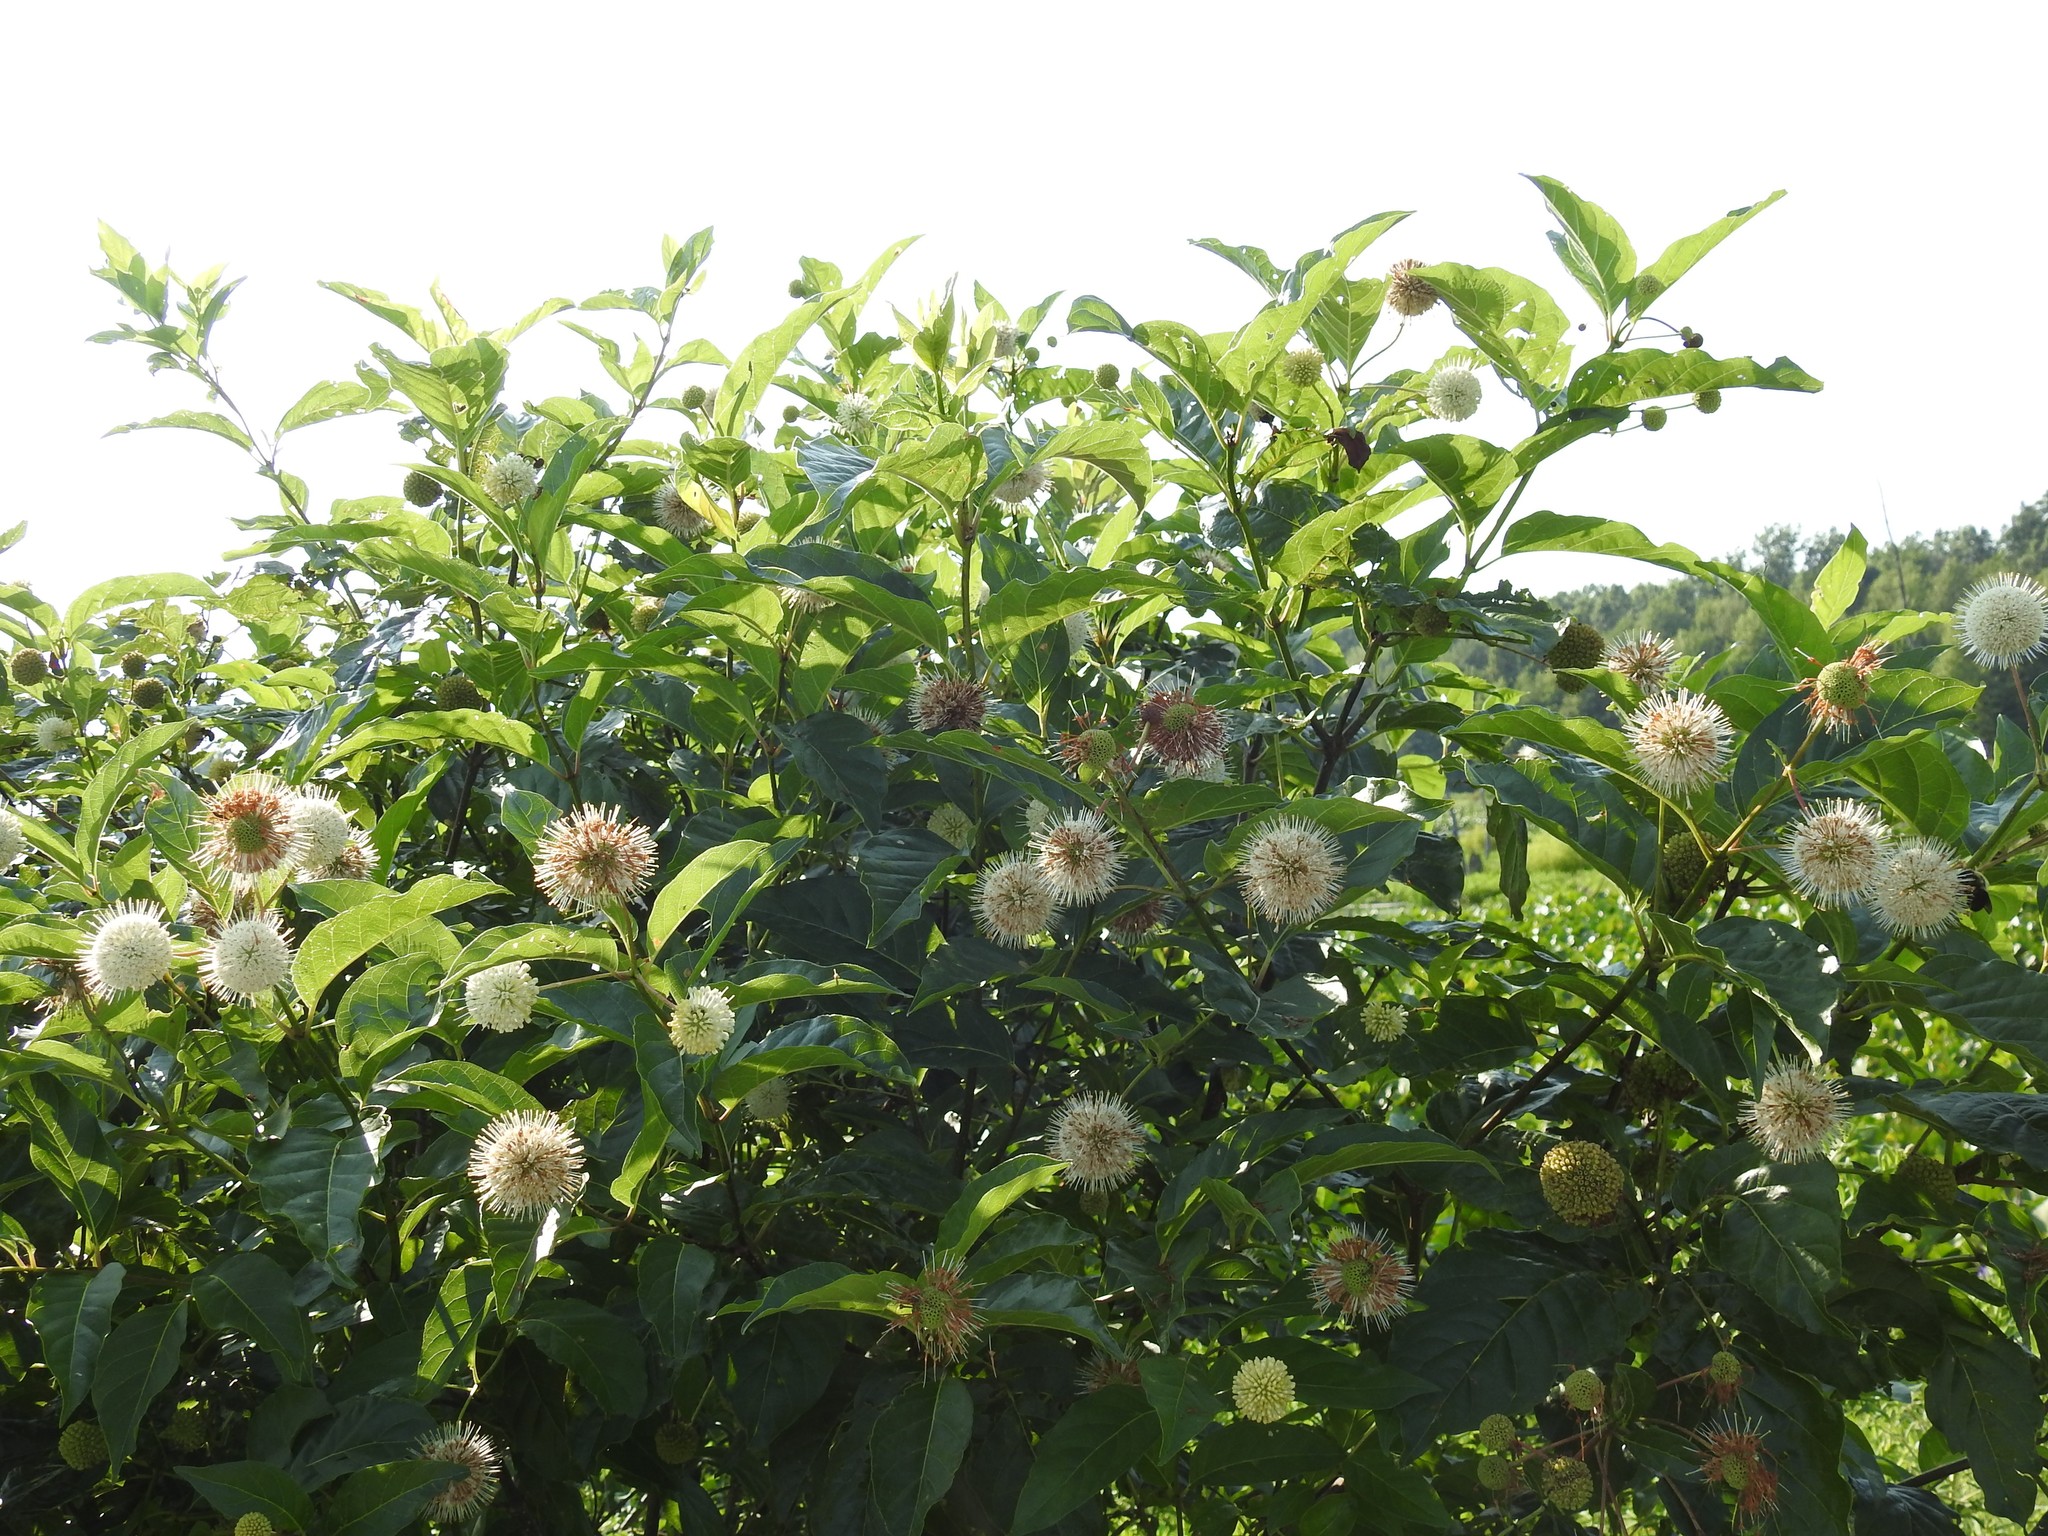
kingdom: Plantae
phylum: Tracheophyta
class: Magnoliopsida
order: Gentianales
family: Rubiaceae
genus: Cephalanthus
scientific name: Cephalanthus occidentalis
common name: Button-willow
